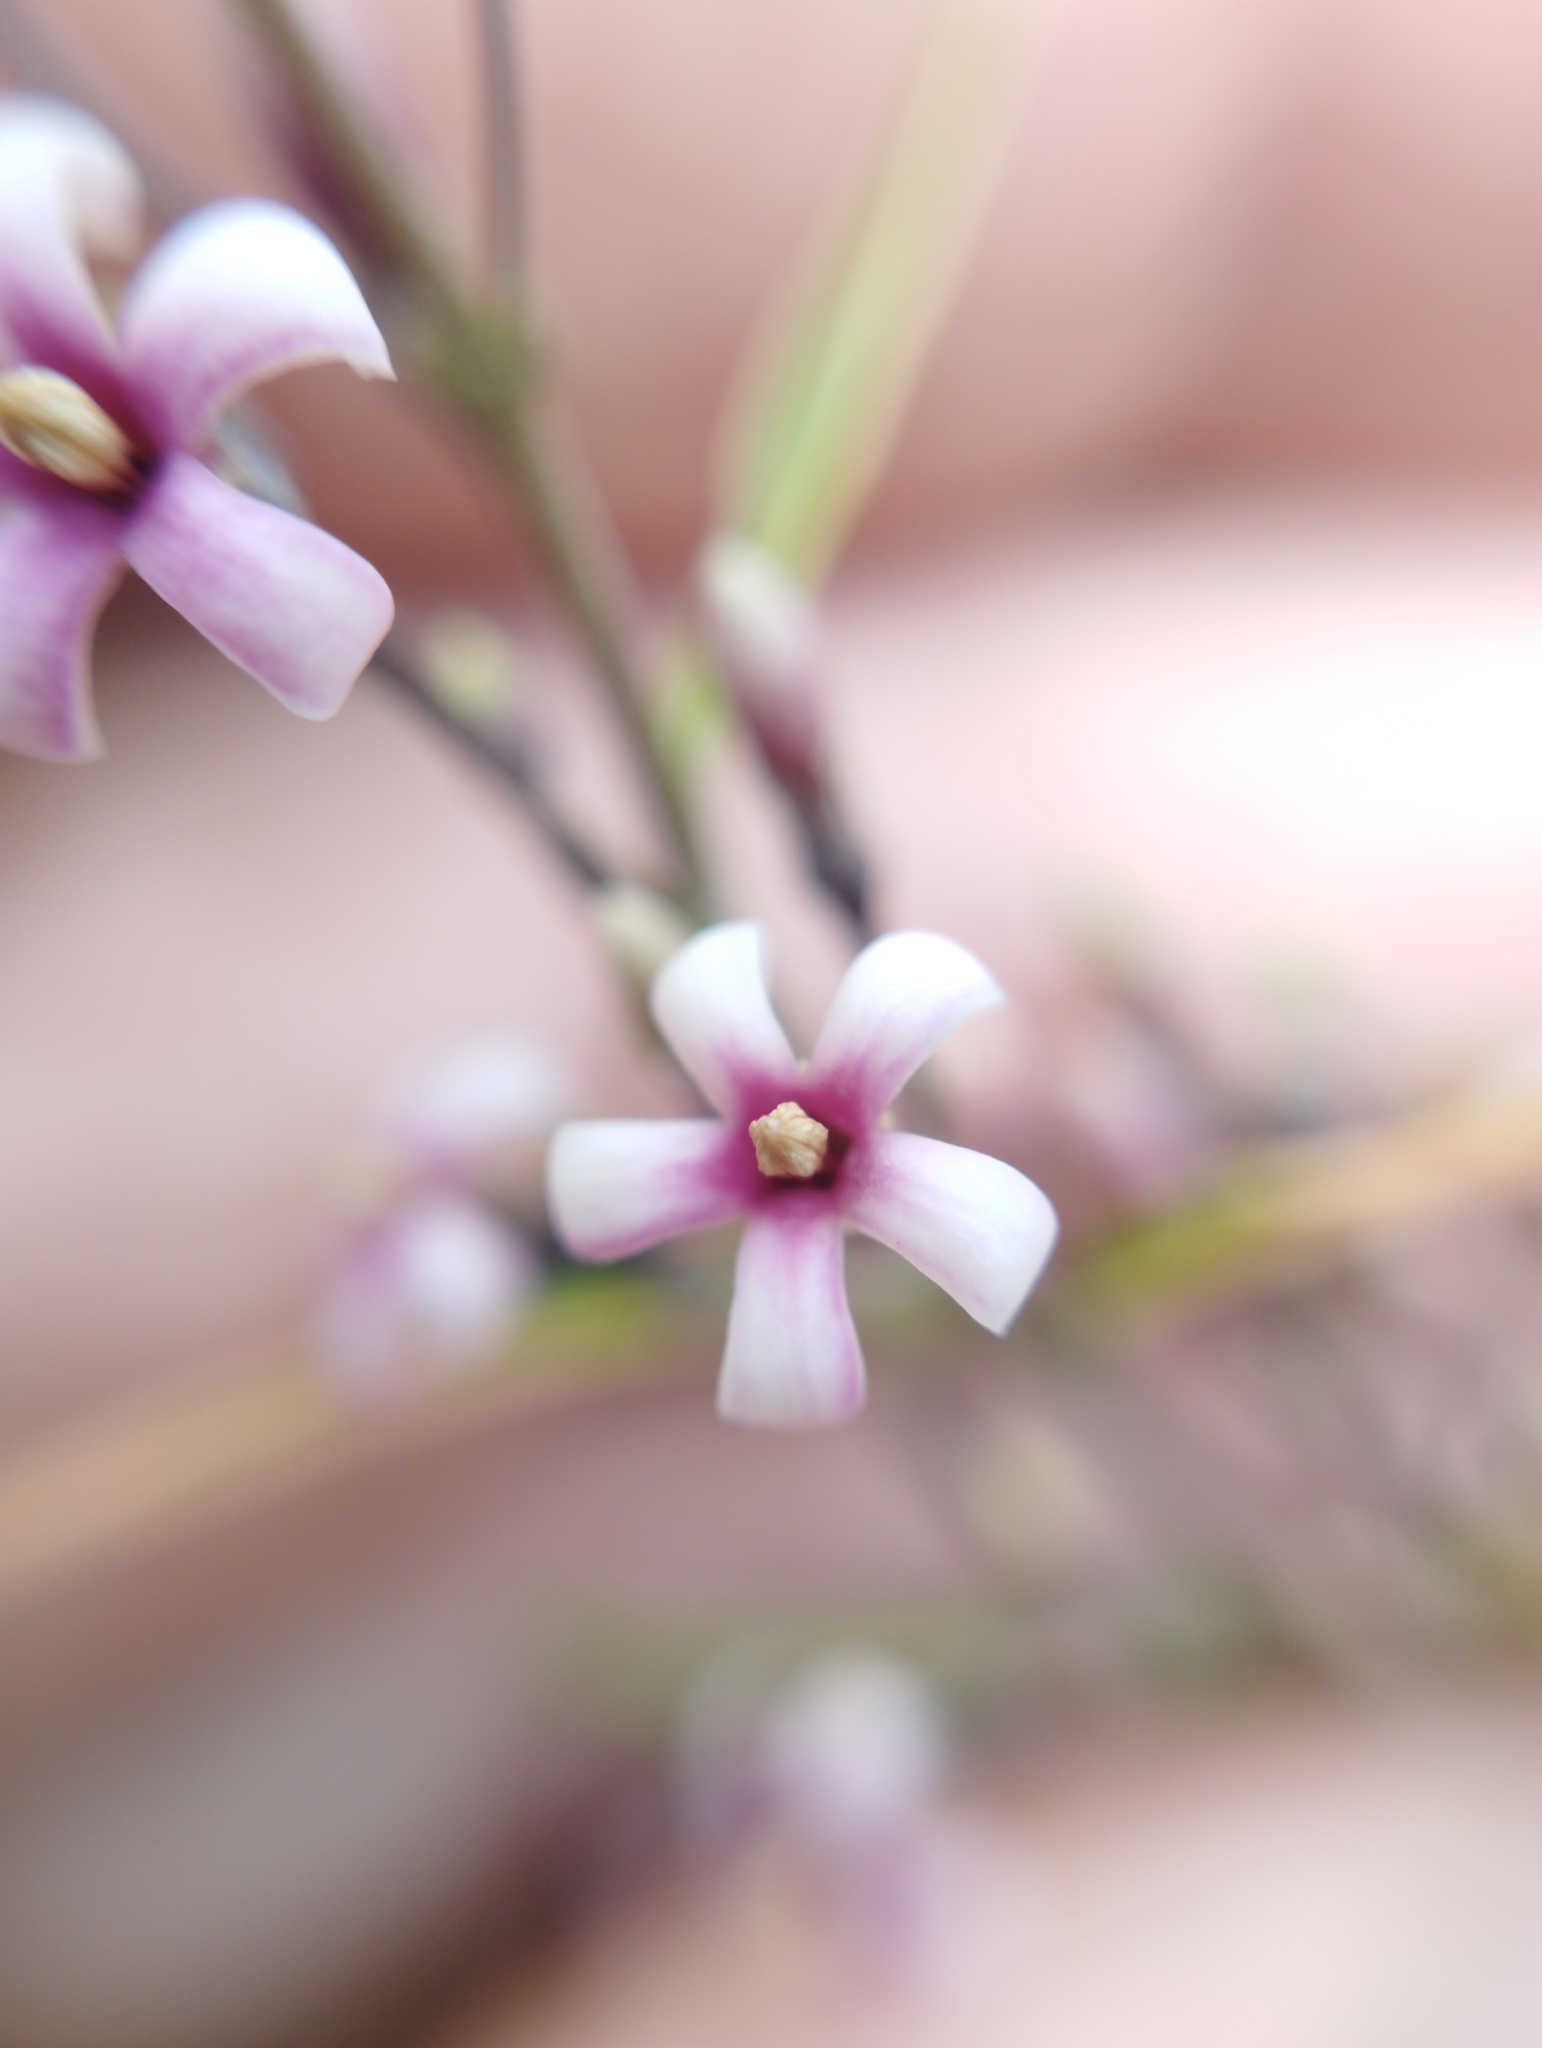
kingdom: Plantae
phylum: Tracheophyta
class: Magnoliopsida
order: Gentianales
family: Apocynaceae
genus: Parsonsia
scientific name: Parsonsia capsularis
